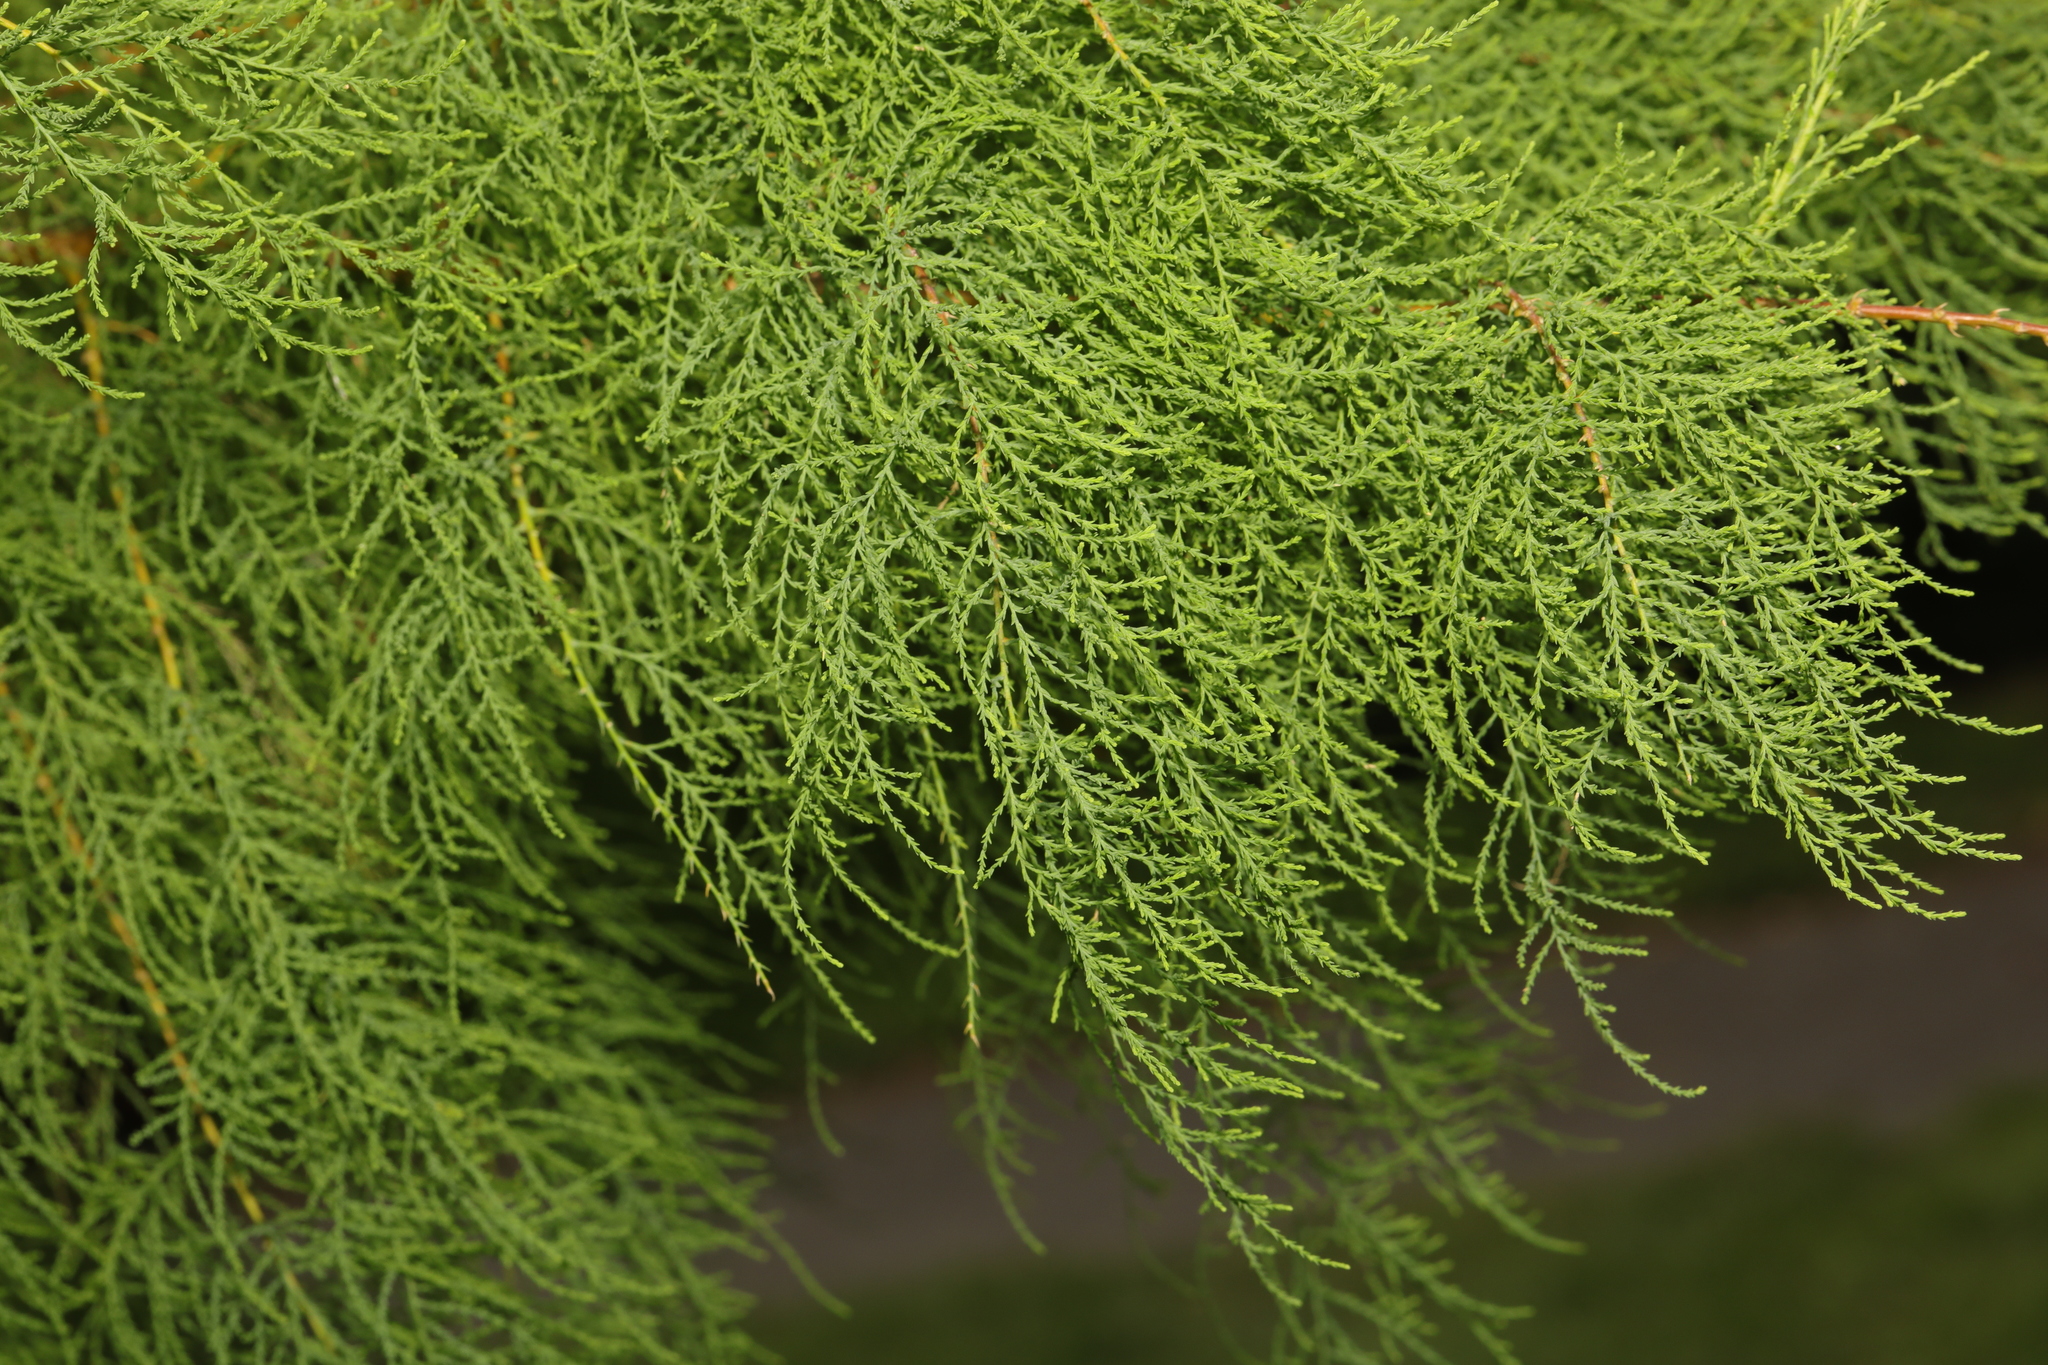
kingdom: Plantae
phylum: Tracheophyta
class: Magnoliopsida
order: Caryophyllales
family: Tamaricaceae
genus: Tamarix
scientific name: Tamarix gallica
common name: Tamarisk
